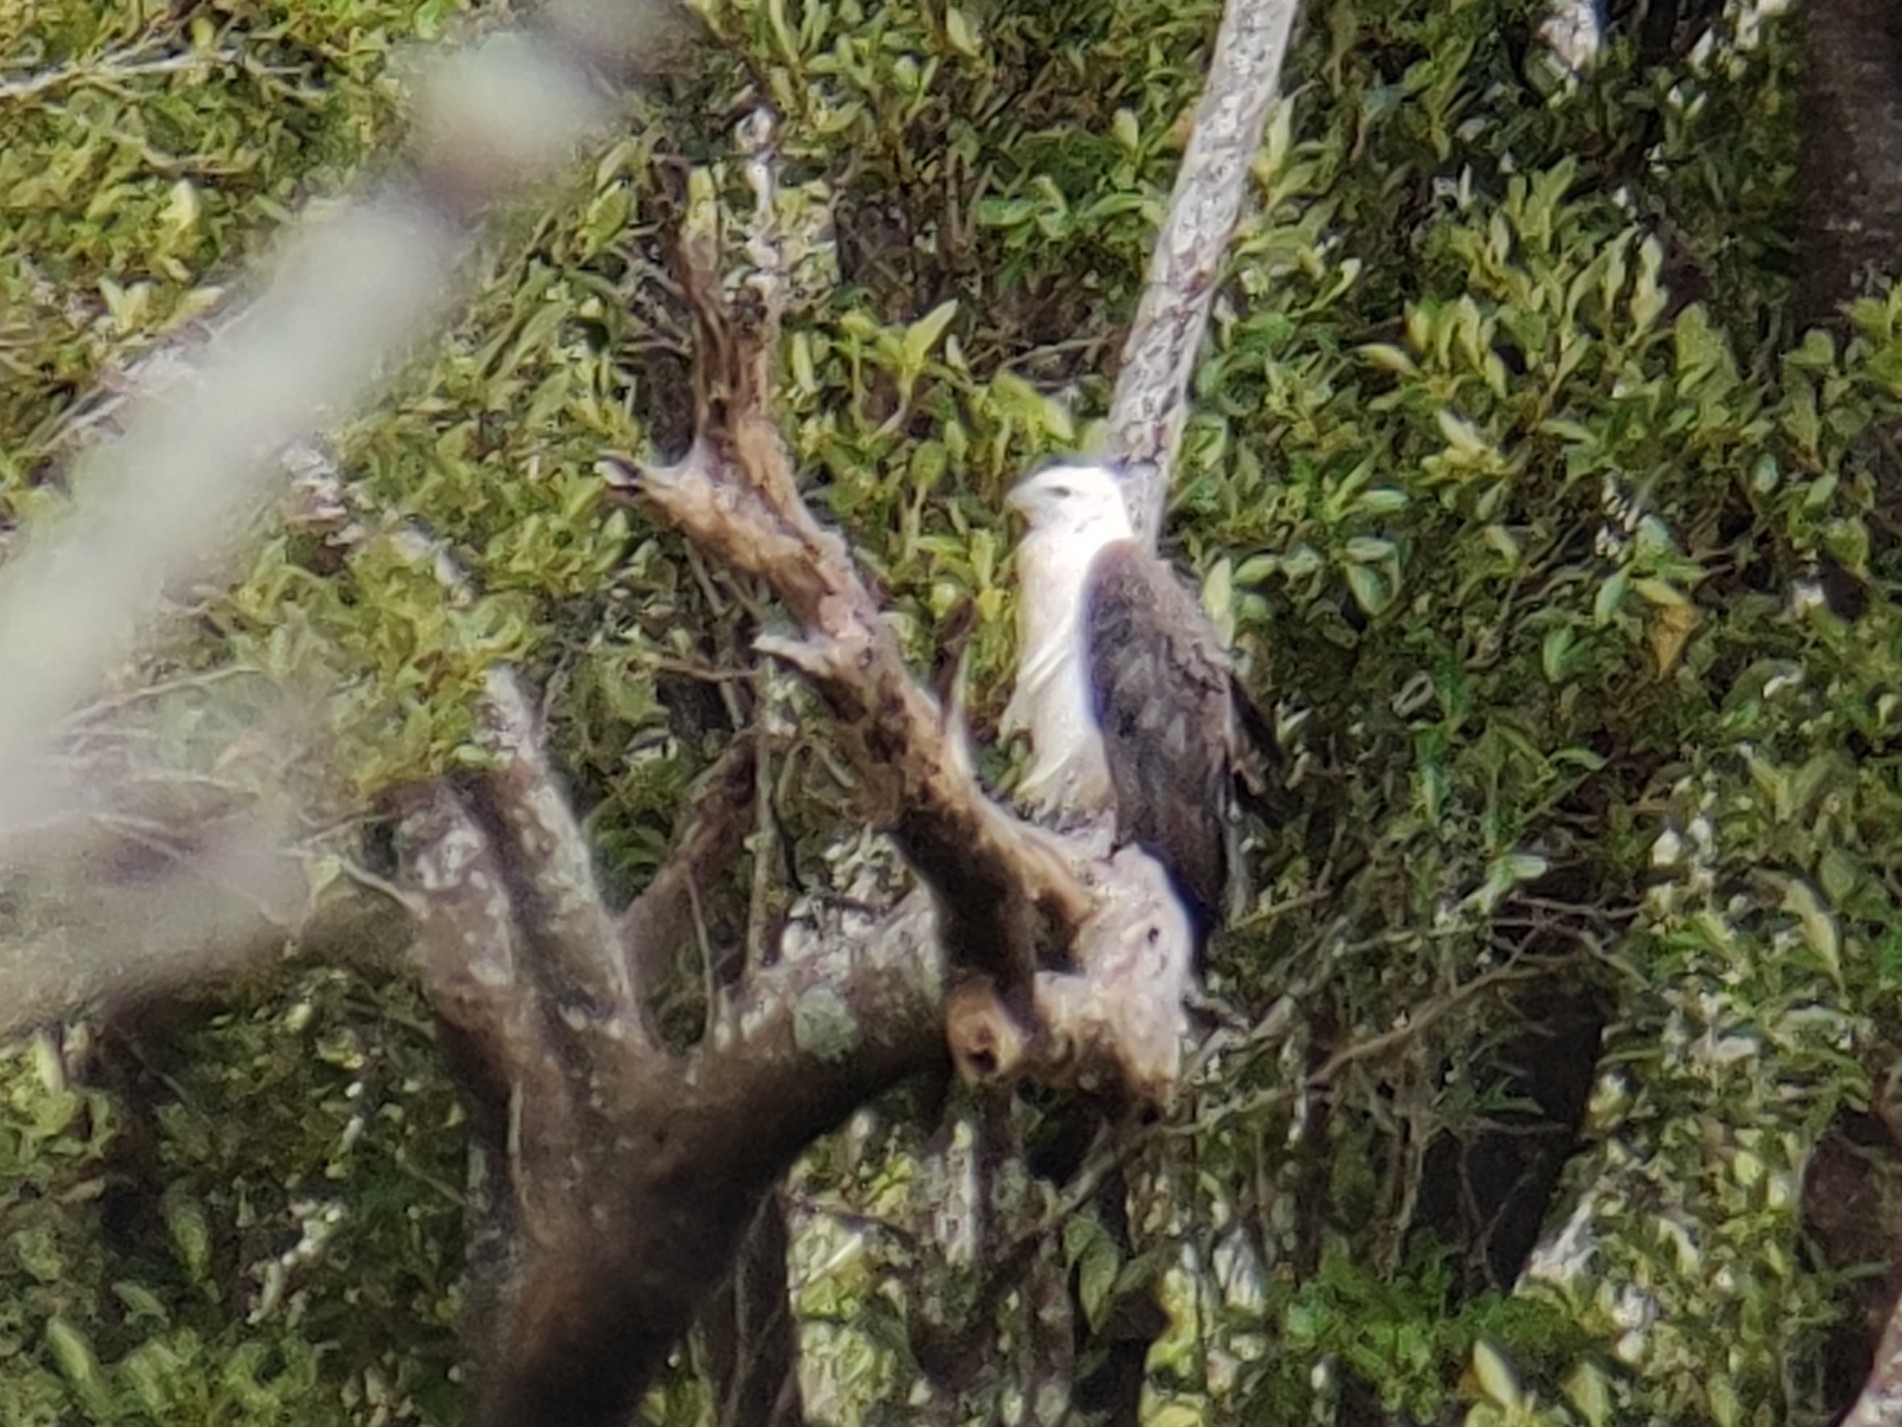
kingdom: Animalia
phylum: Chordata
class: Aves
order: Accipitriformes
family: Accipitridae
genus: Haliaeetus
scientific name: Haliaeetus leucogaster
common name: White-bellied sea eagle
